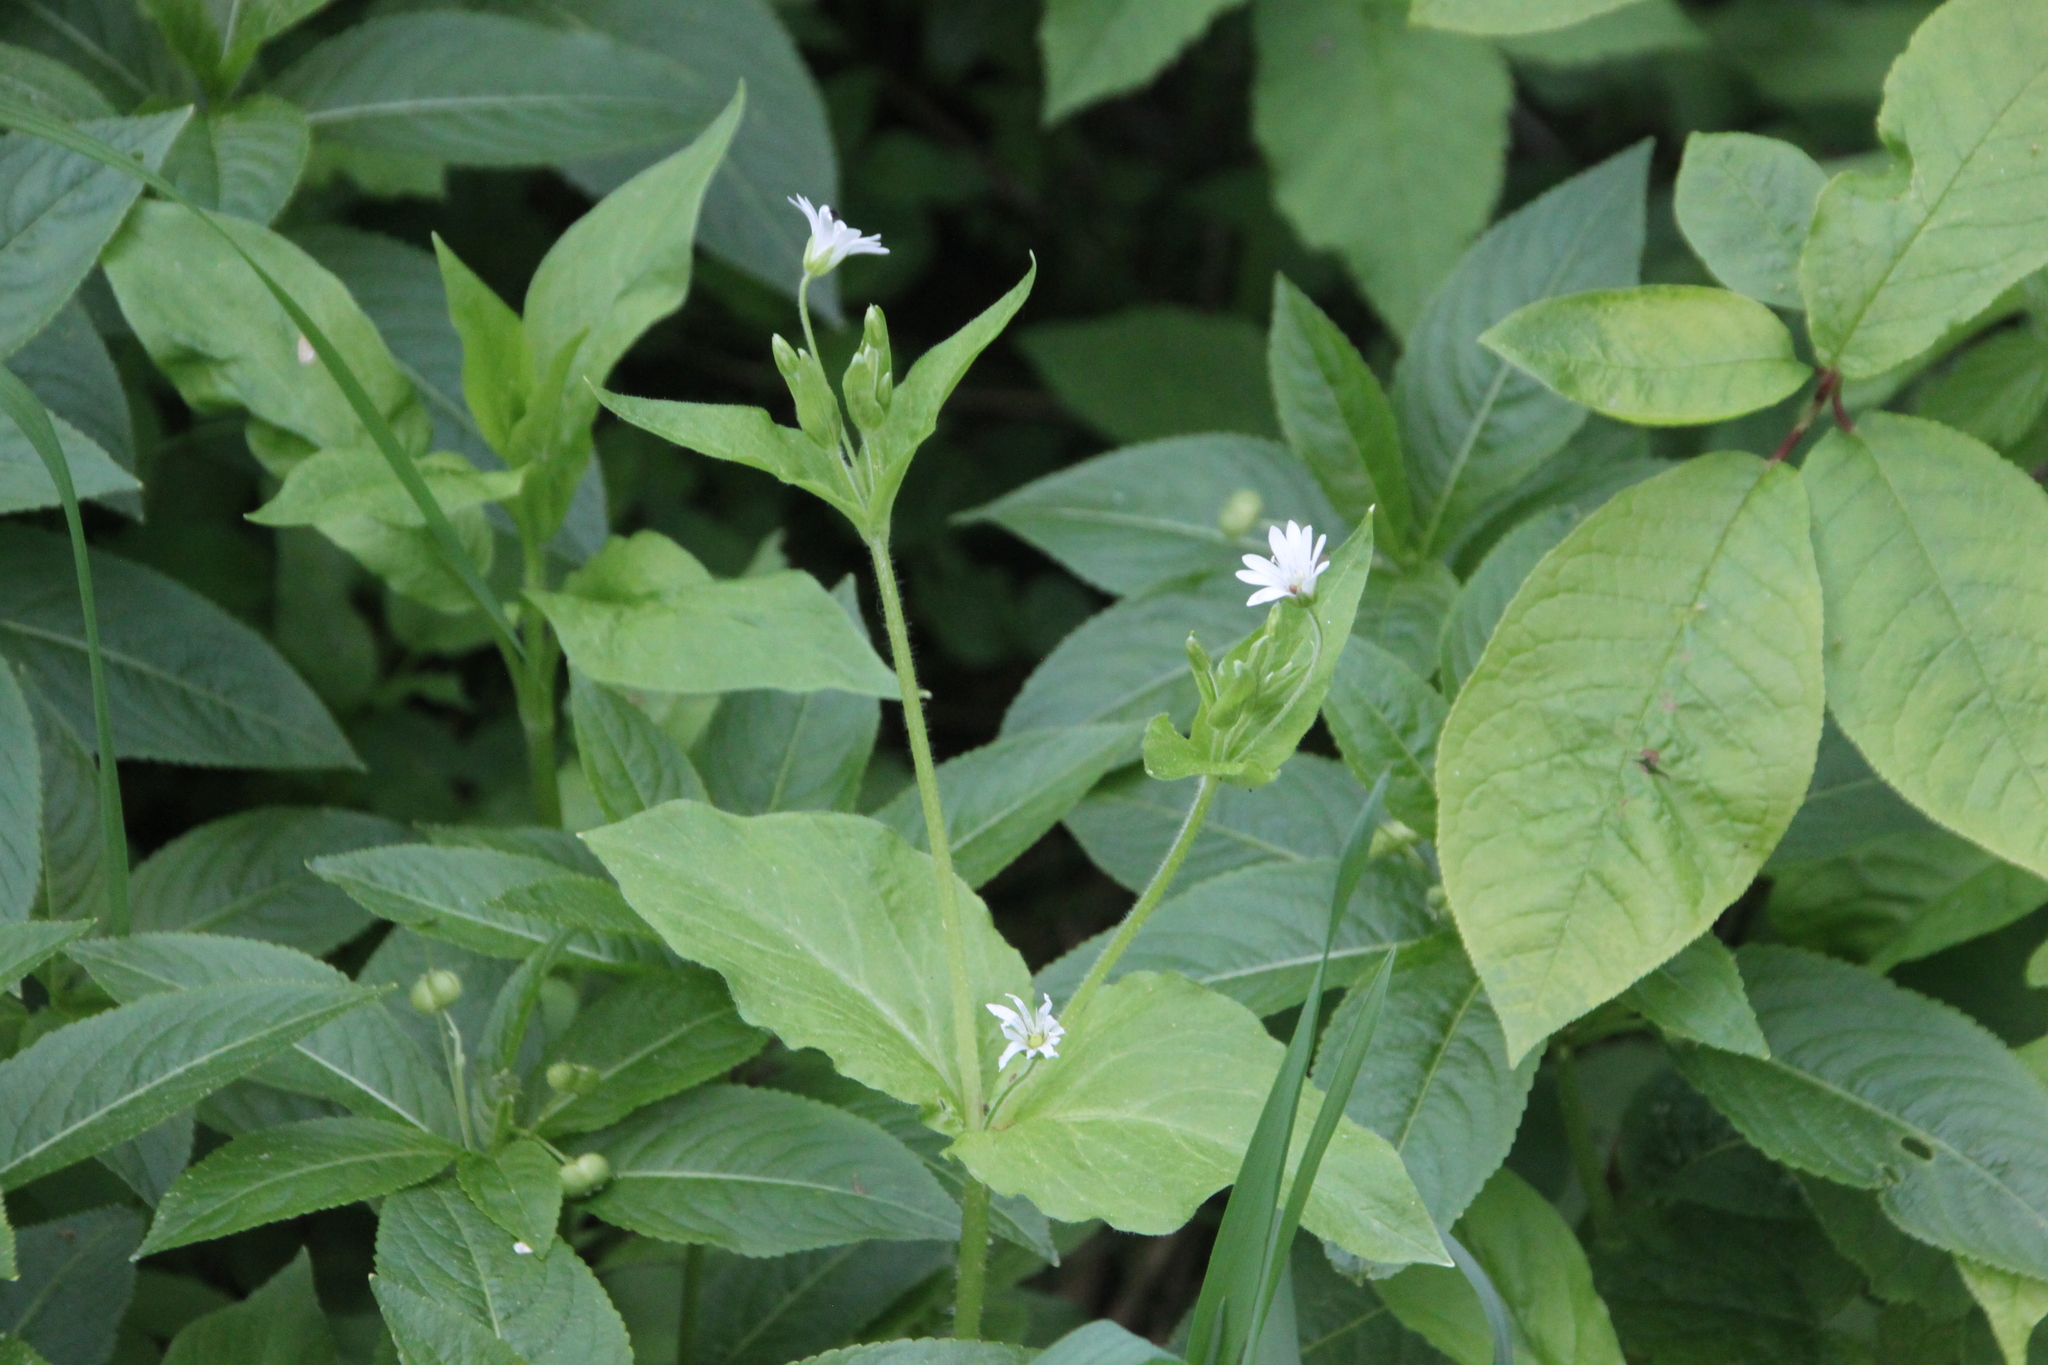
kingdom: Plantae
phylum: Tracheophyta
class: Magnoliopsida
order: Caryophyllales
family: Caryophyllaceae
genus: Stellaria
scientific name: Stellaria nemorum
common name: Wood stitchwort
